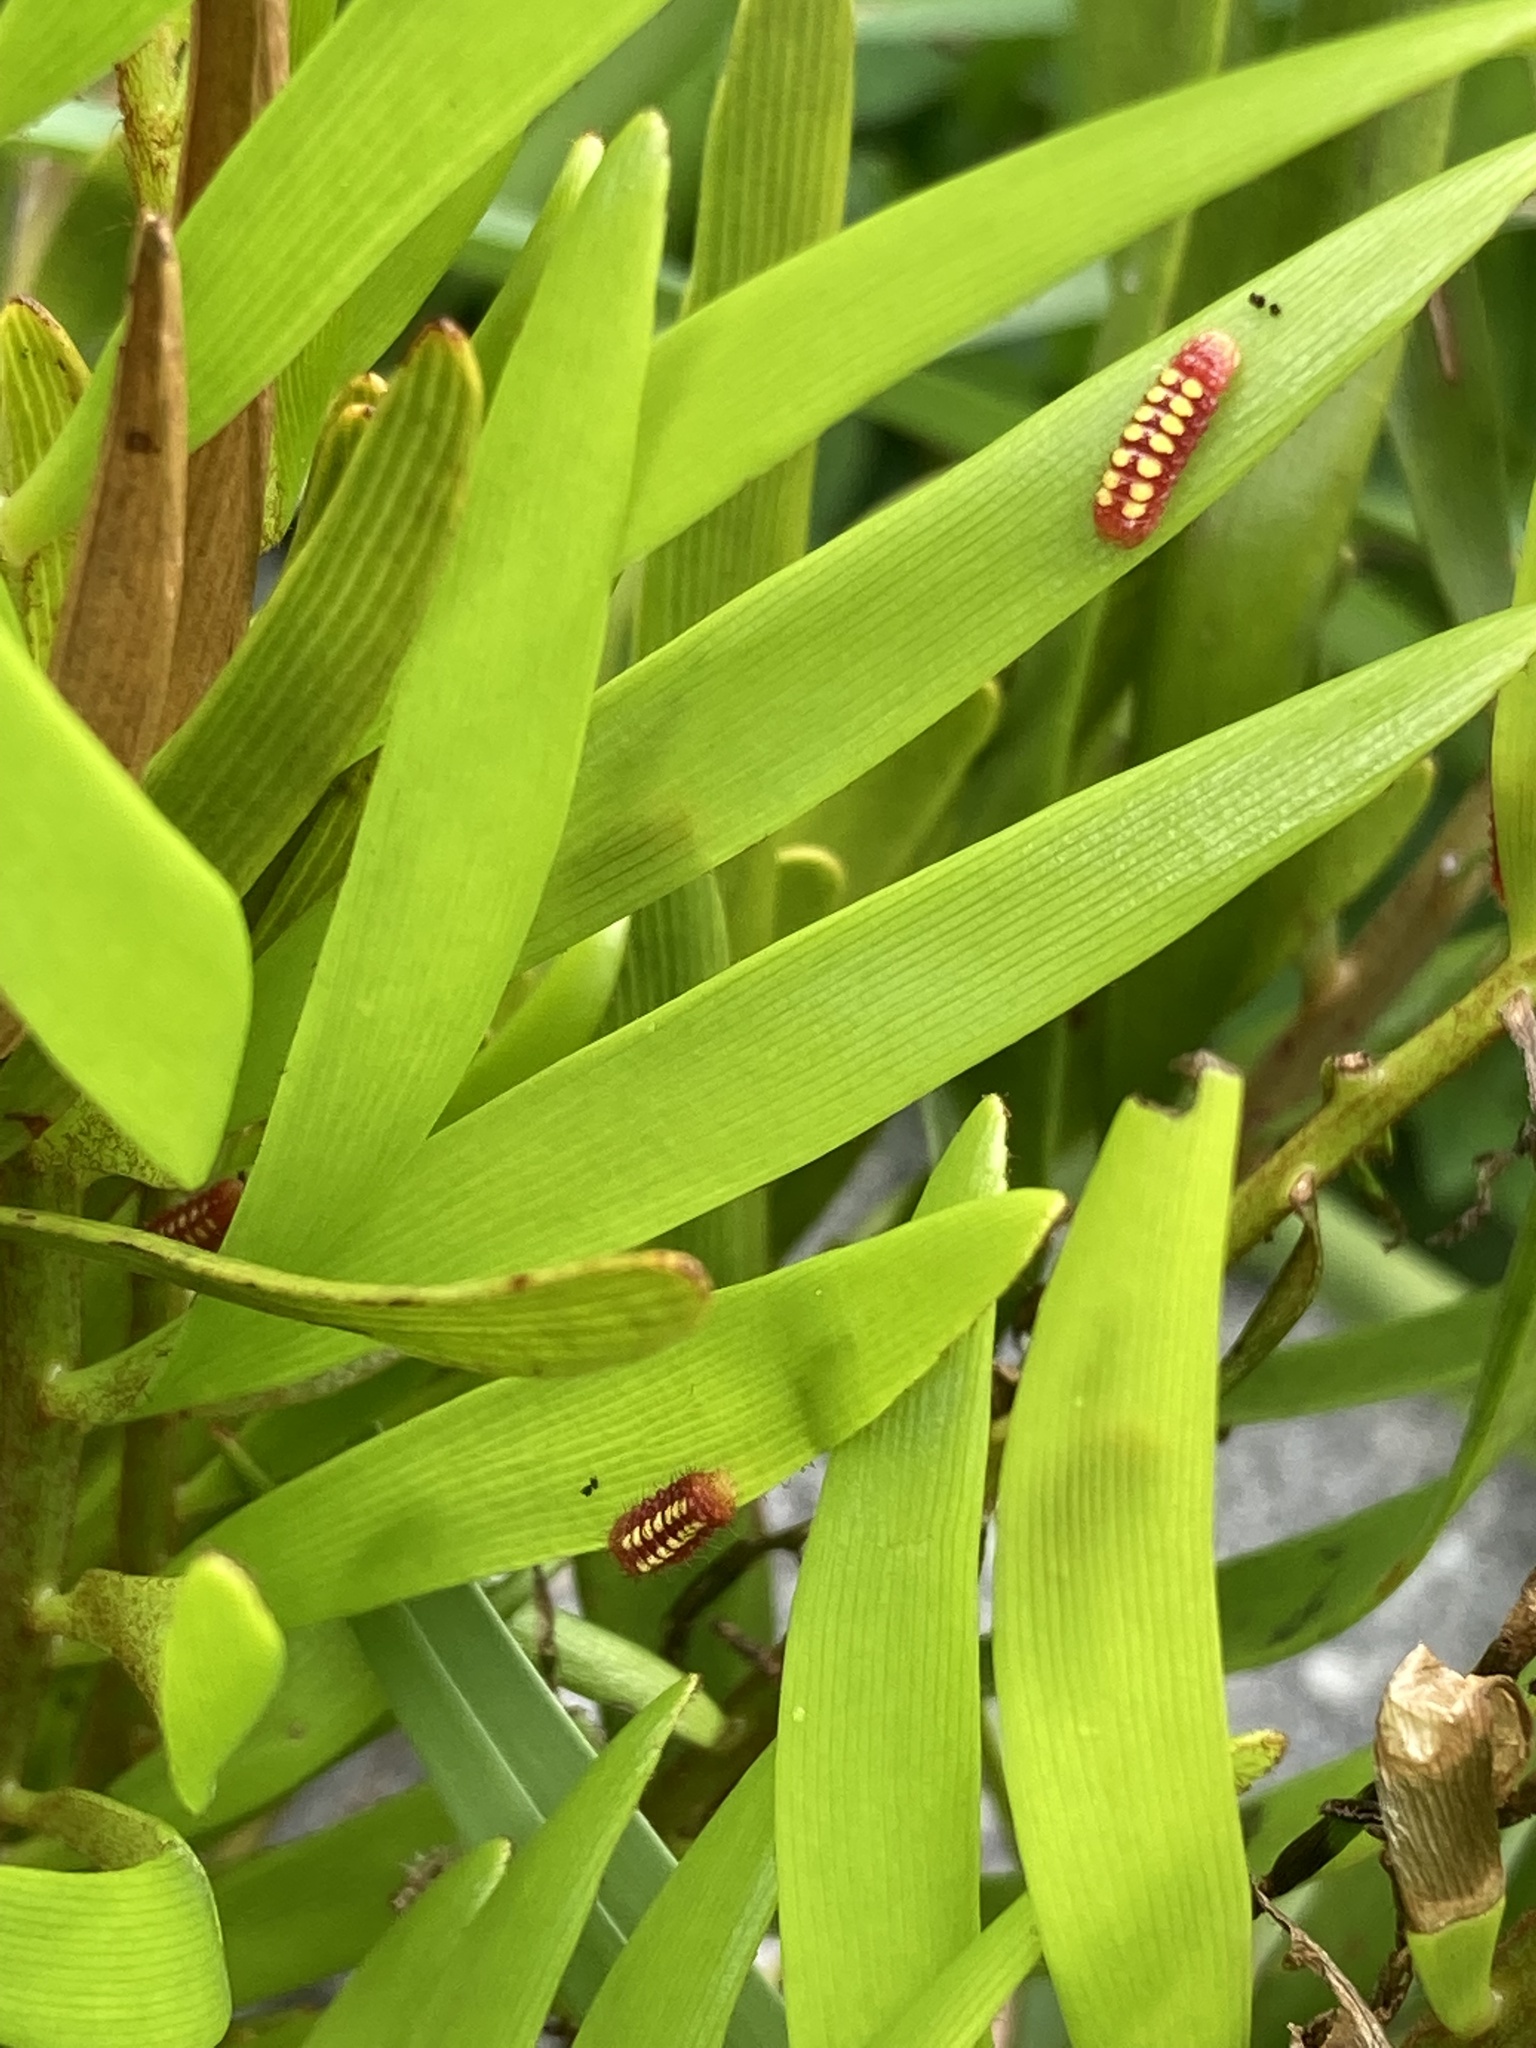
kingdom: Animalia
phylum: Arthropoda
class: Insecta
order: Lepidoptera
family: Lycaenidae
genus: Eumaeus
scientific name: Eumaeus atala
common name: Atala
